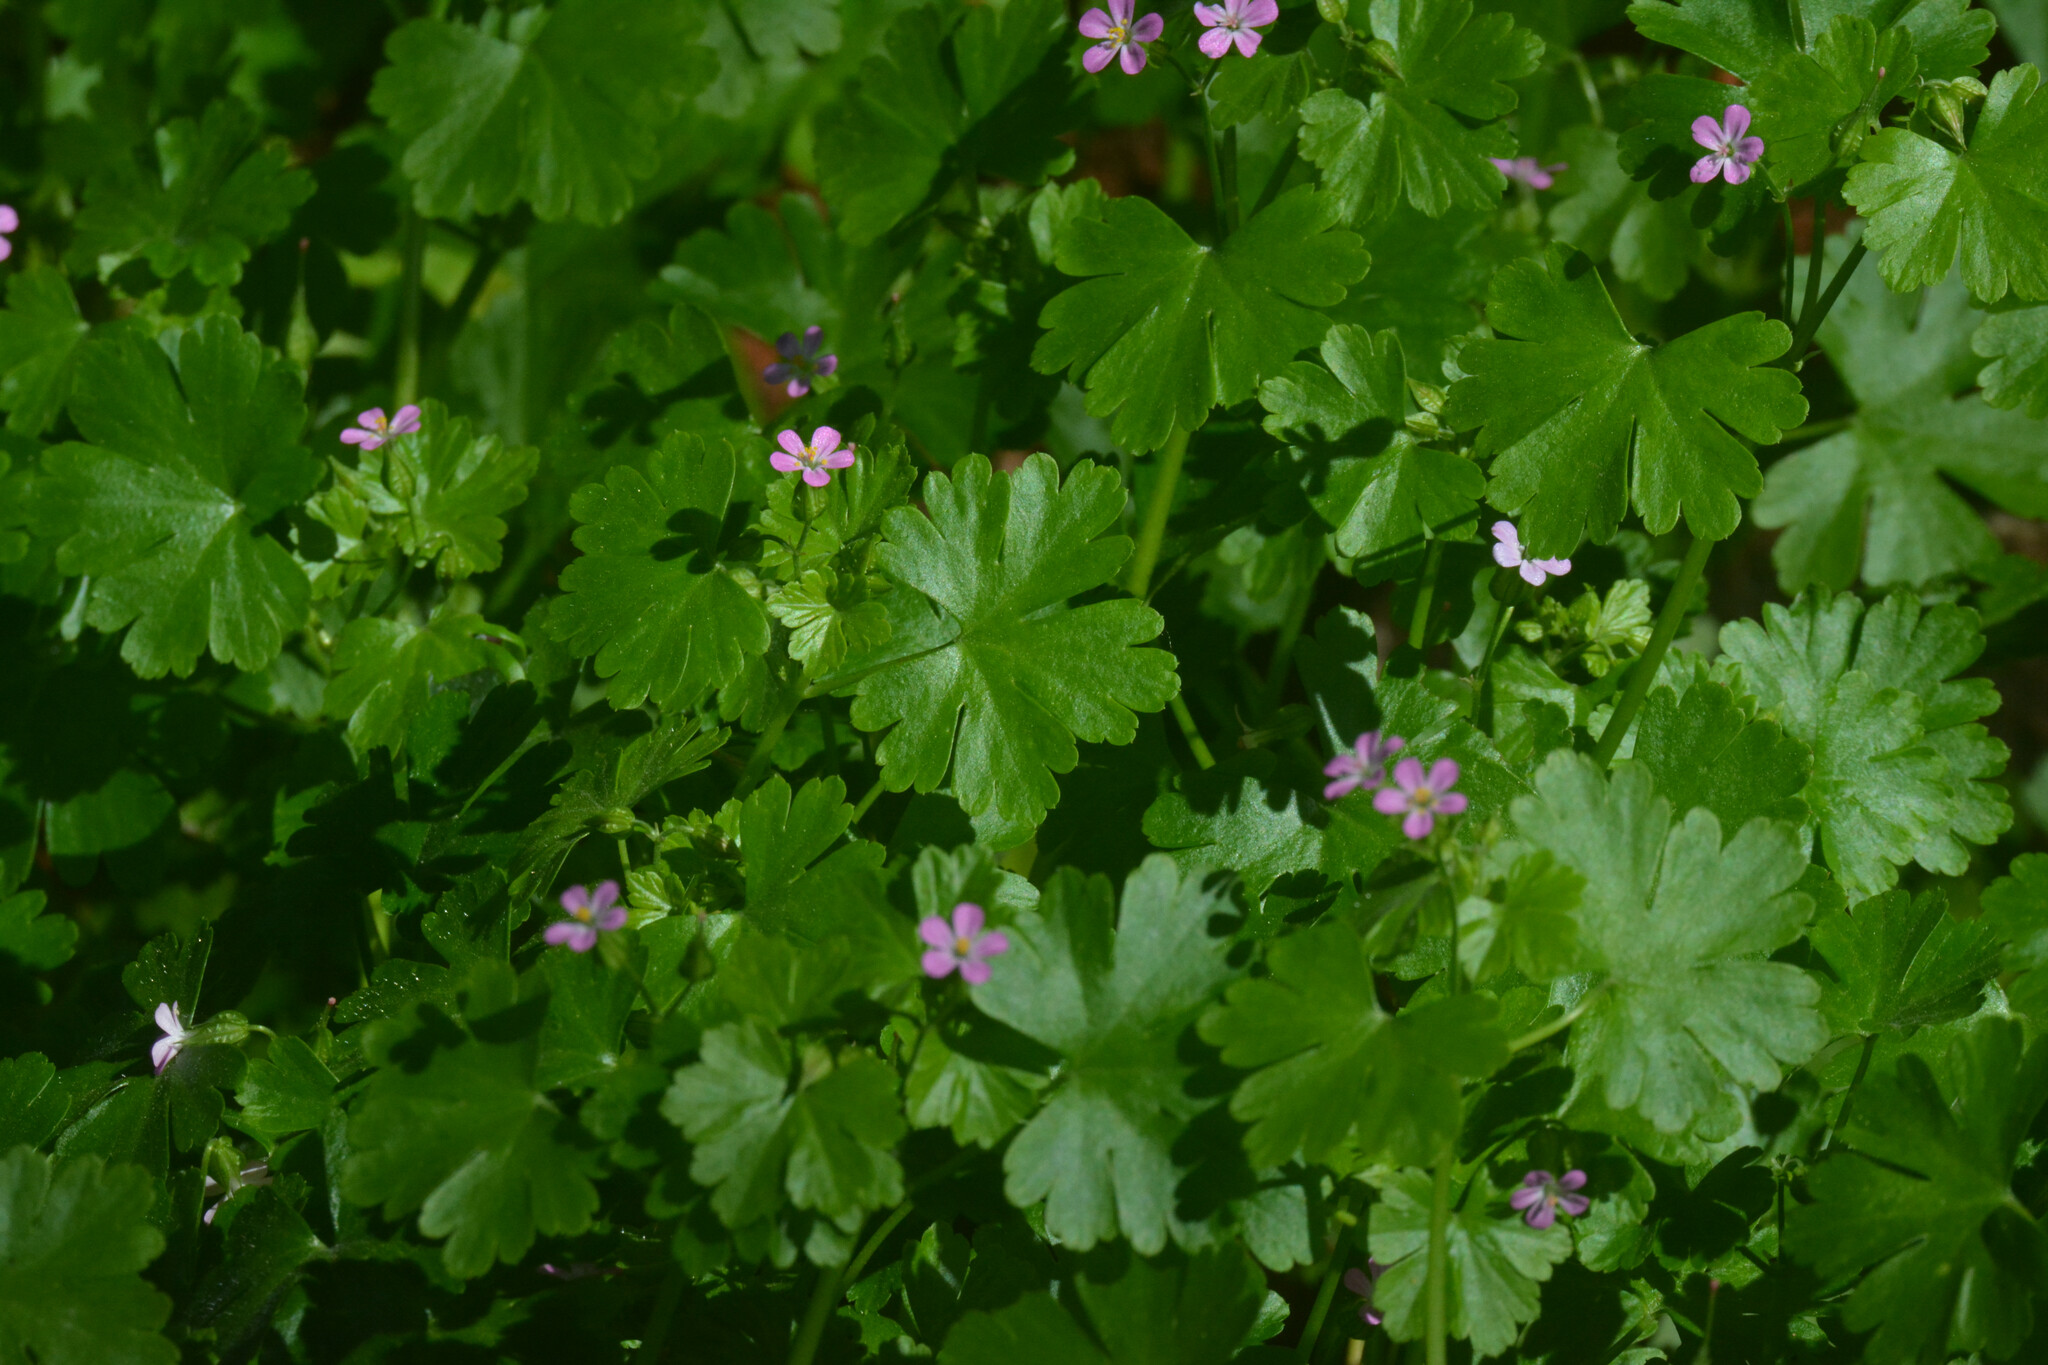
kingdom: Plantae
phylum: Tracheophyta
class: Magnoliopsida
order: Geraniales
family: Geraniaceae
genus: Geranium
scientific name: Geranium lucidum
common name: Shining crane's-bill
